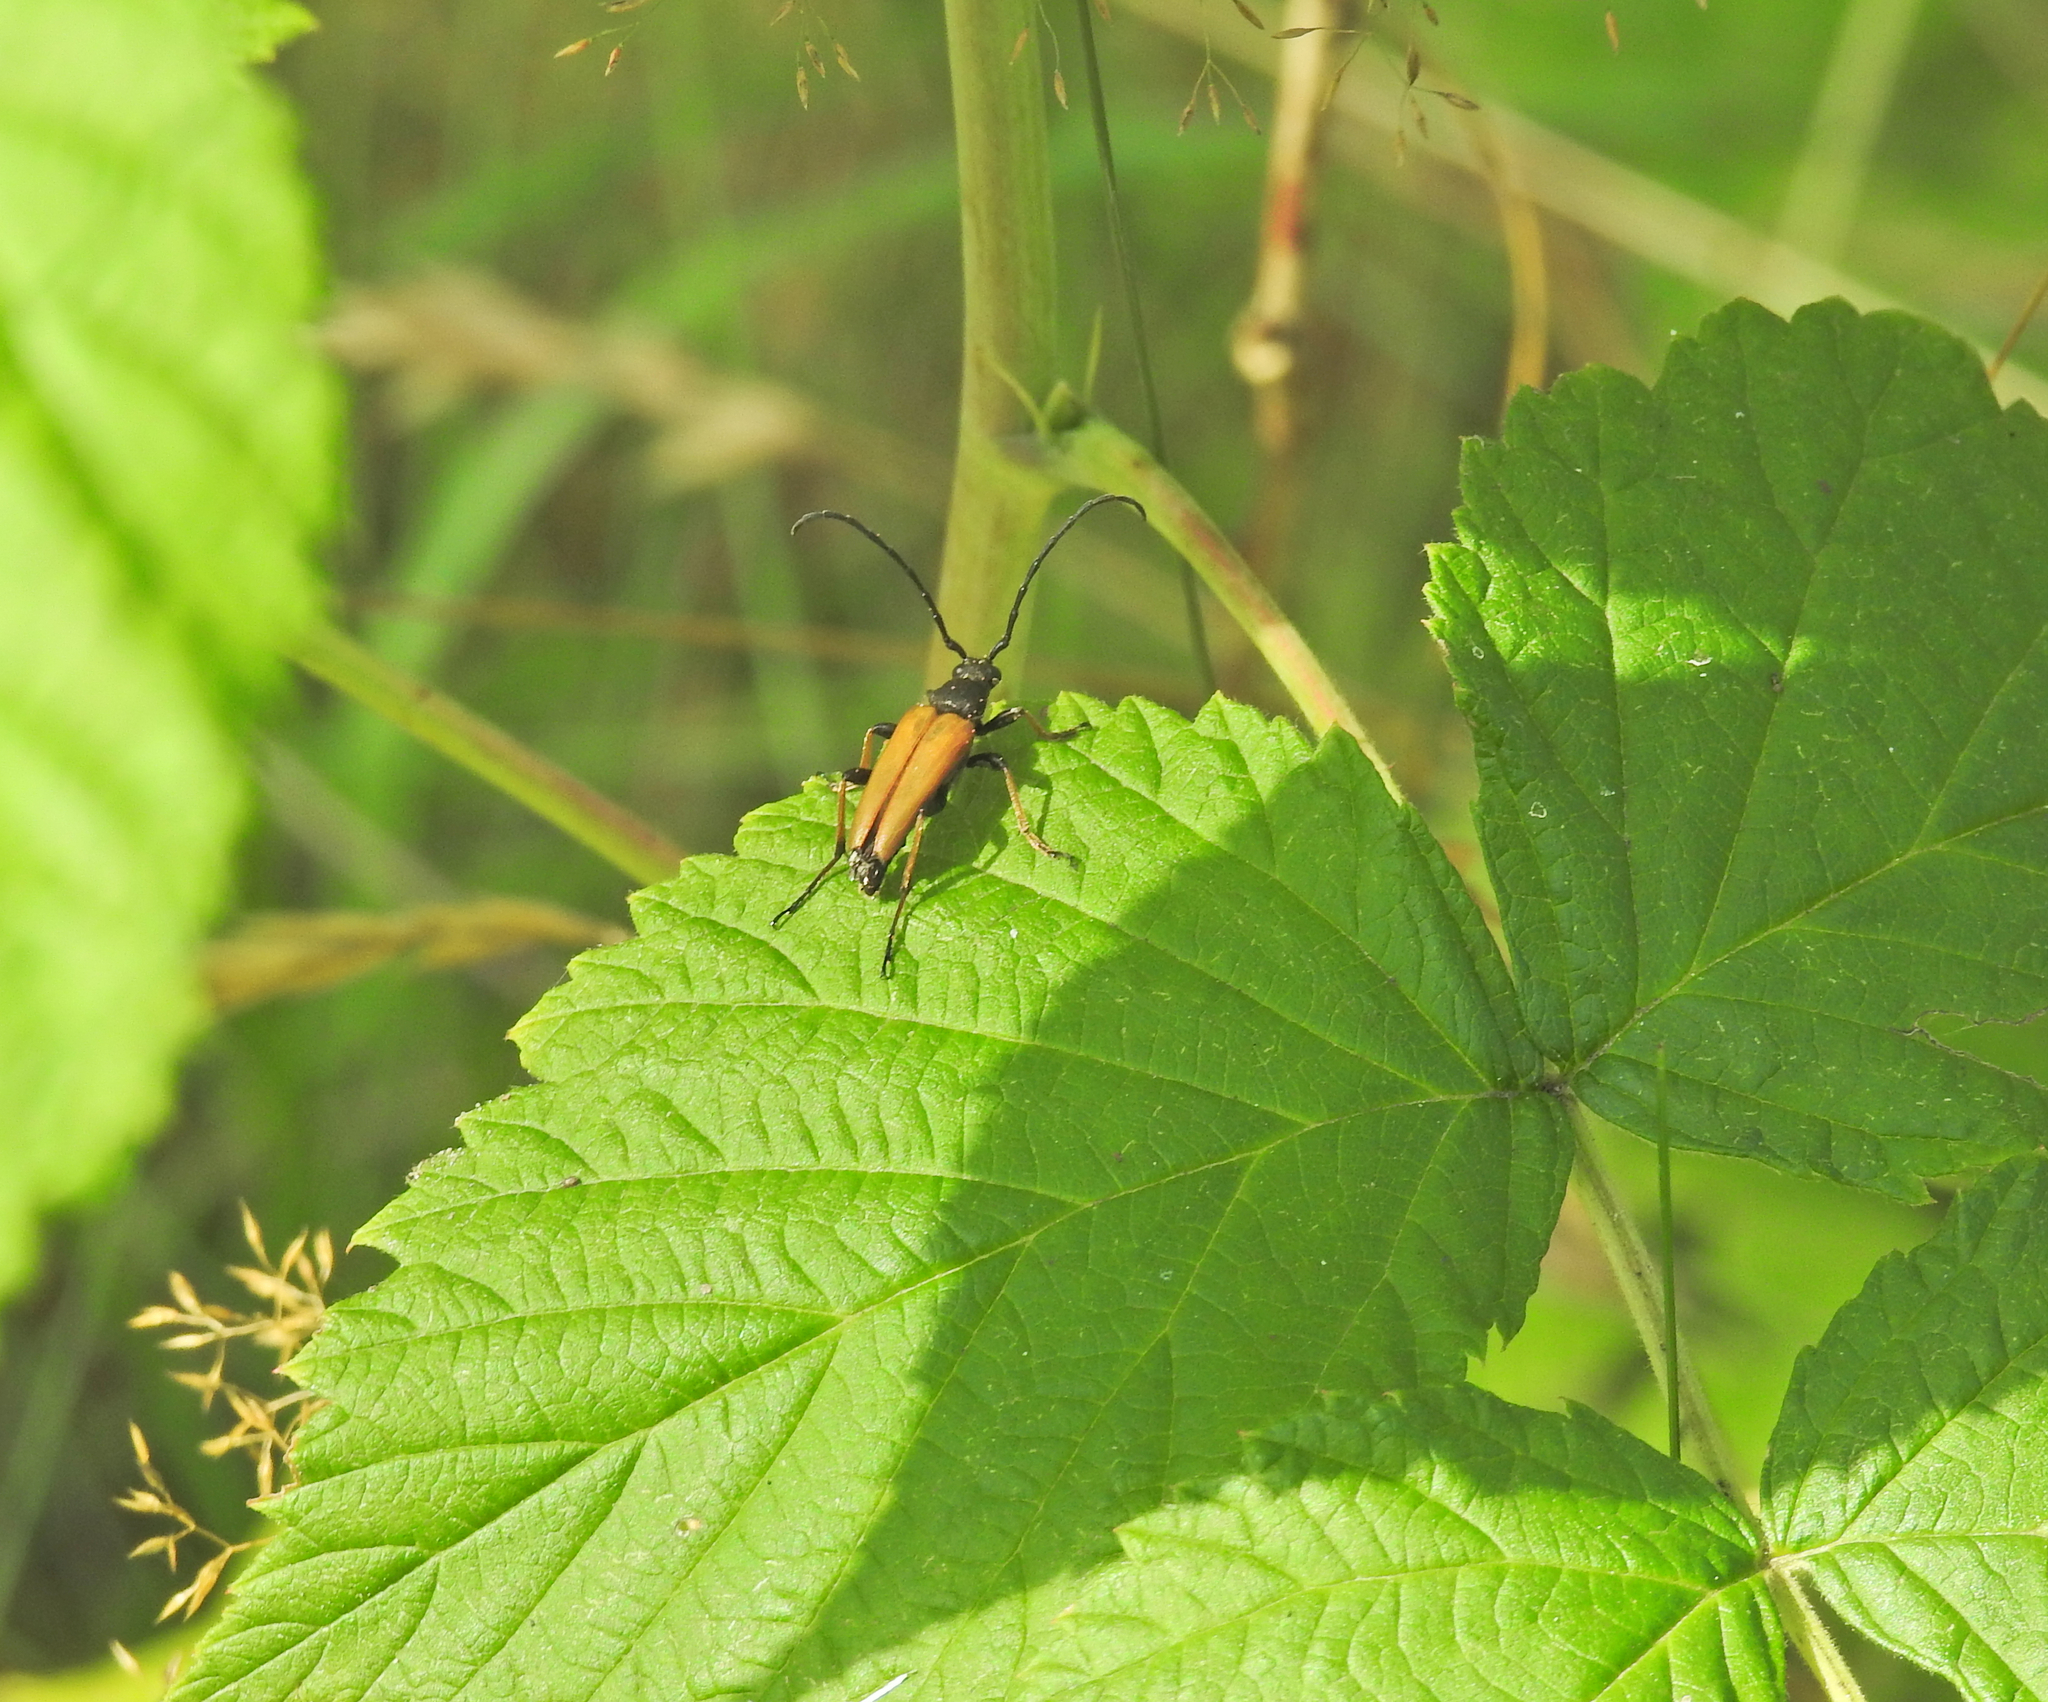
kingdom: Animalia
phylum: Arthropoda
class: Insecta
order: Coleoptera
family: Cerambycidae
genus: Stictoleptura
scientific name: Stictoleptura rubra
